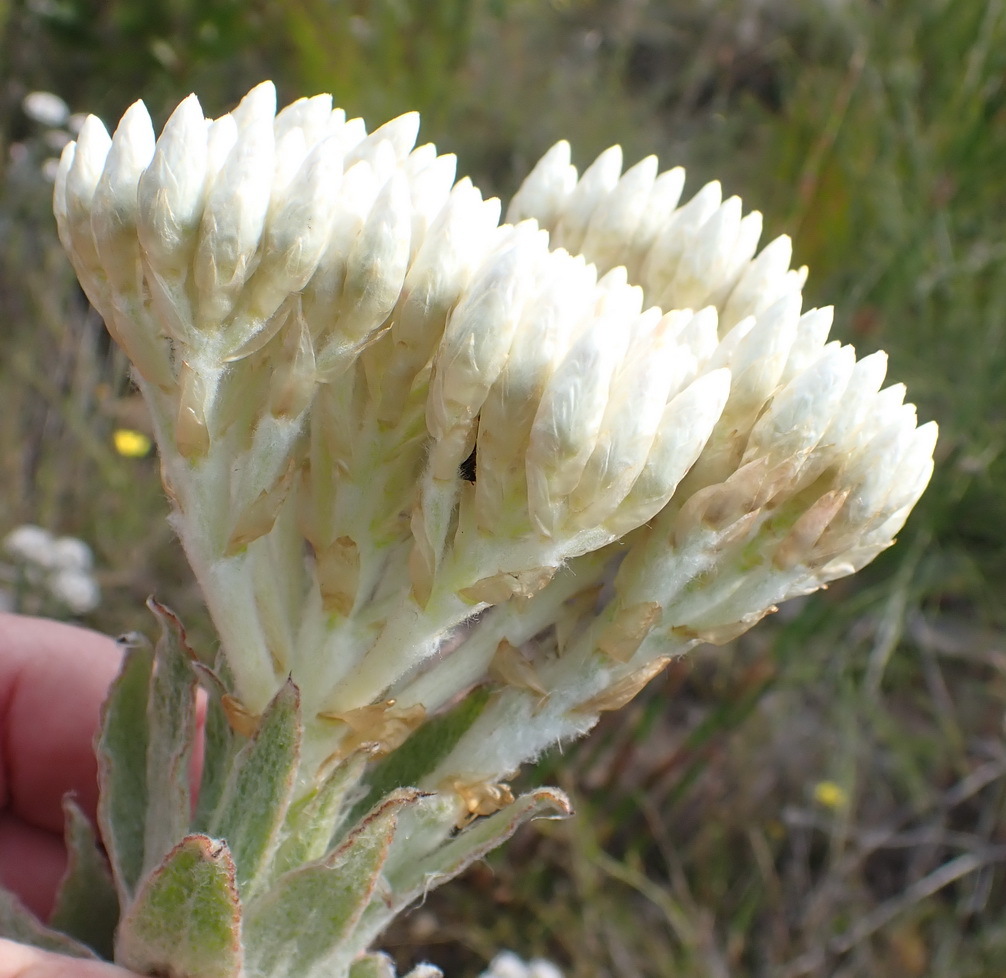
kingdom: Plantae
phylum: Tracheophyta
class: Magnoliopsida
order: Asterales
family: Asteraceae
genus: Syncarpha
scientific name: Syncarpha milleflora
